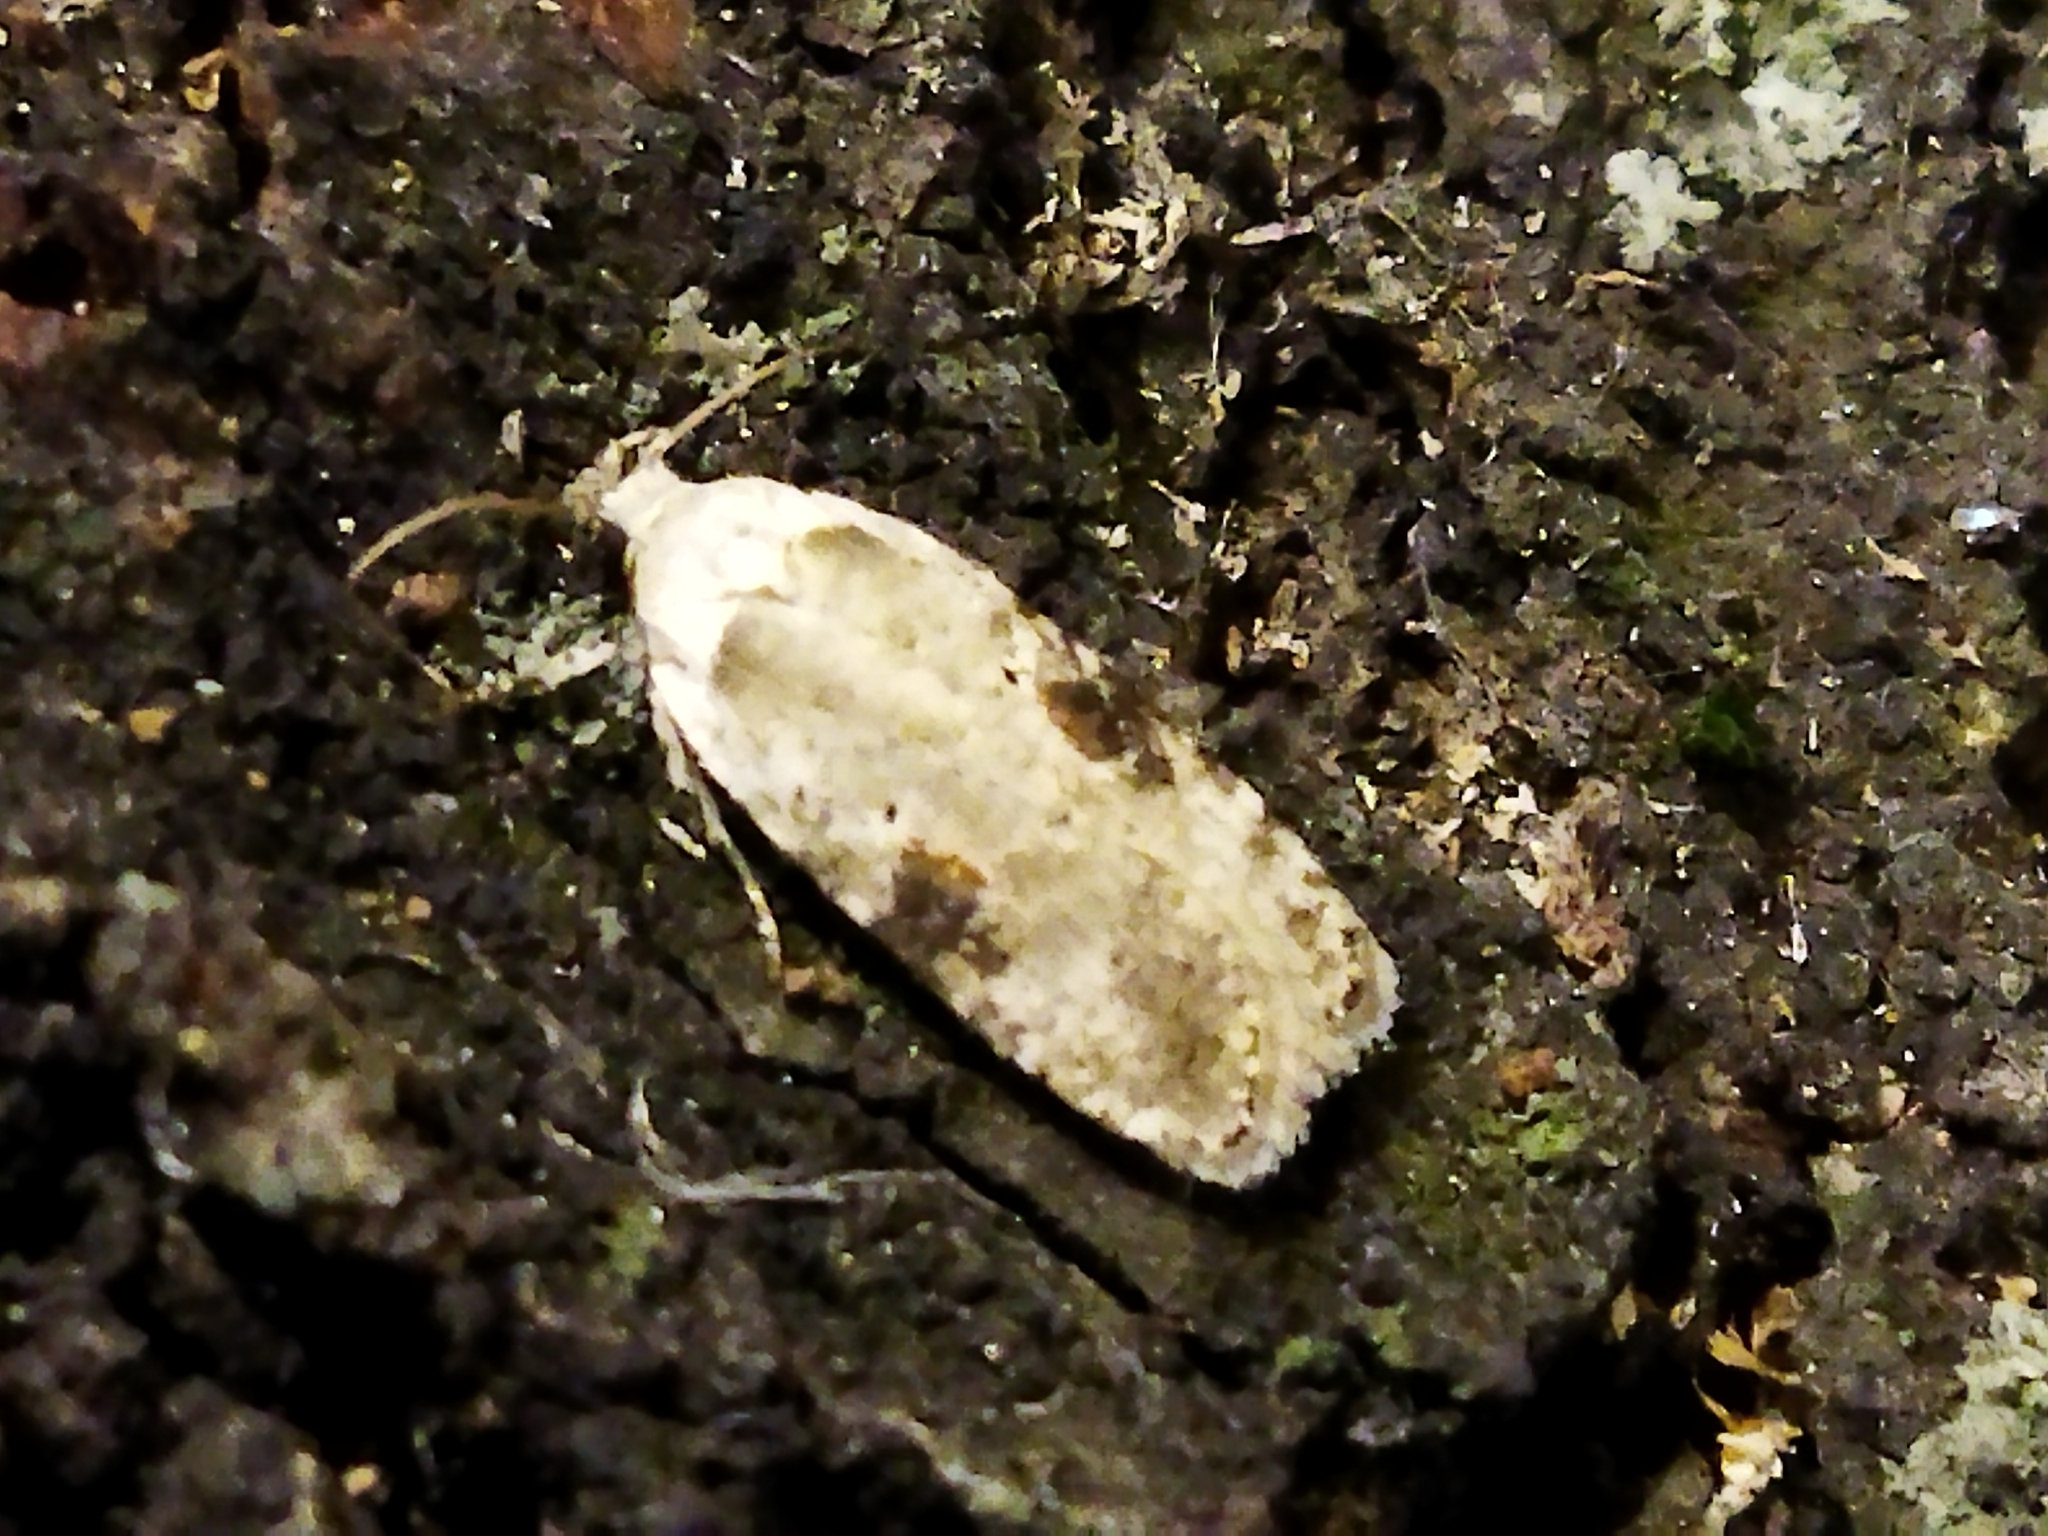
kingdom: Animalia
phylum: Arthropoda
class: Insecta
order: Lepidoptera
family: Depressariidae
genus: Agonopterix
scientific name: Agonopterix alstroemeriana
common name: Moth
